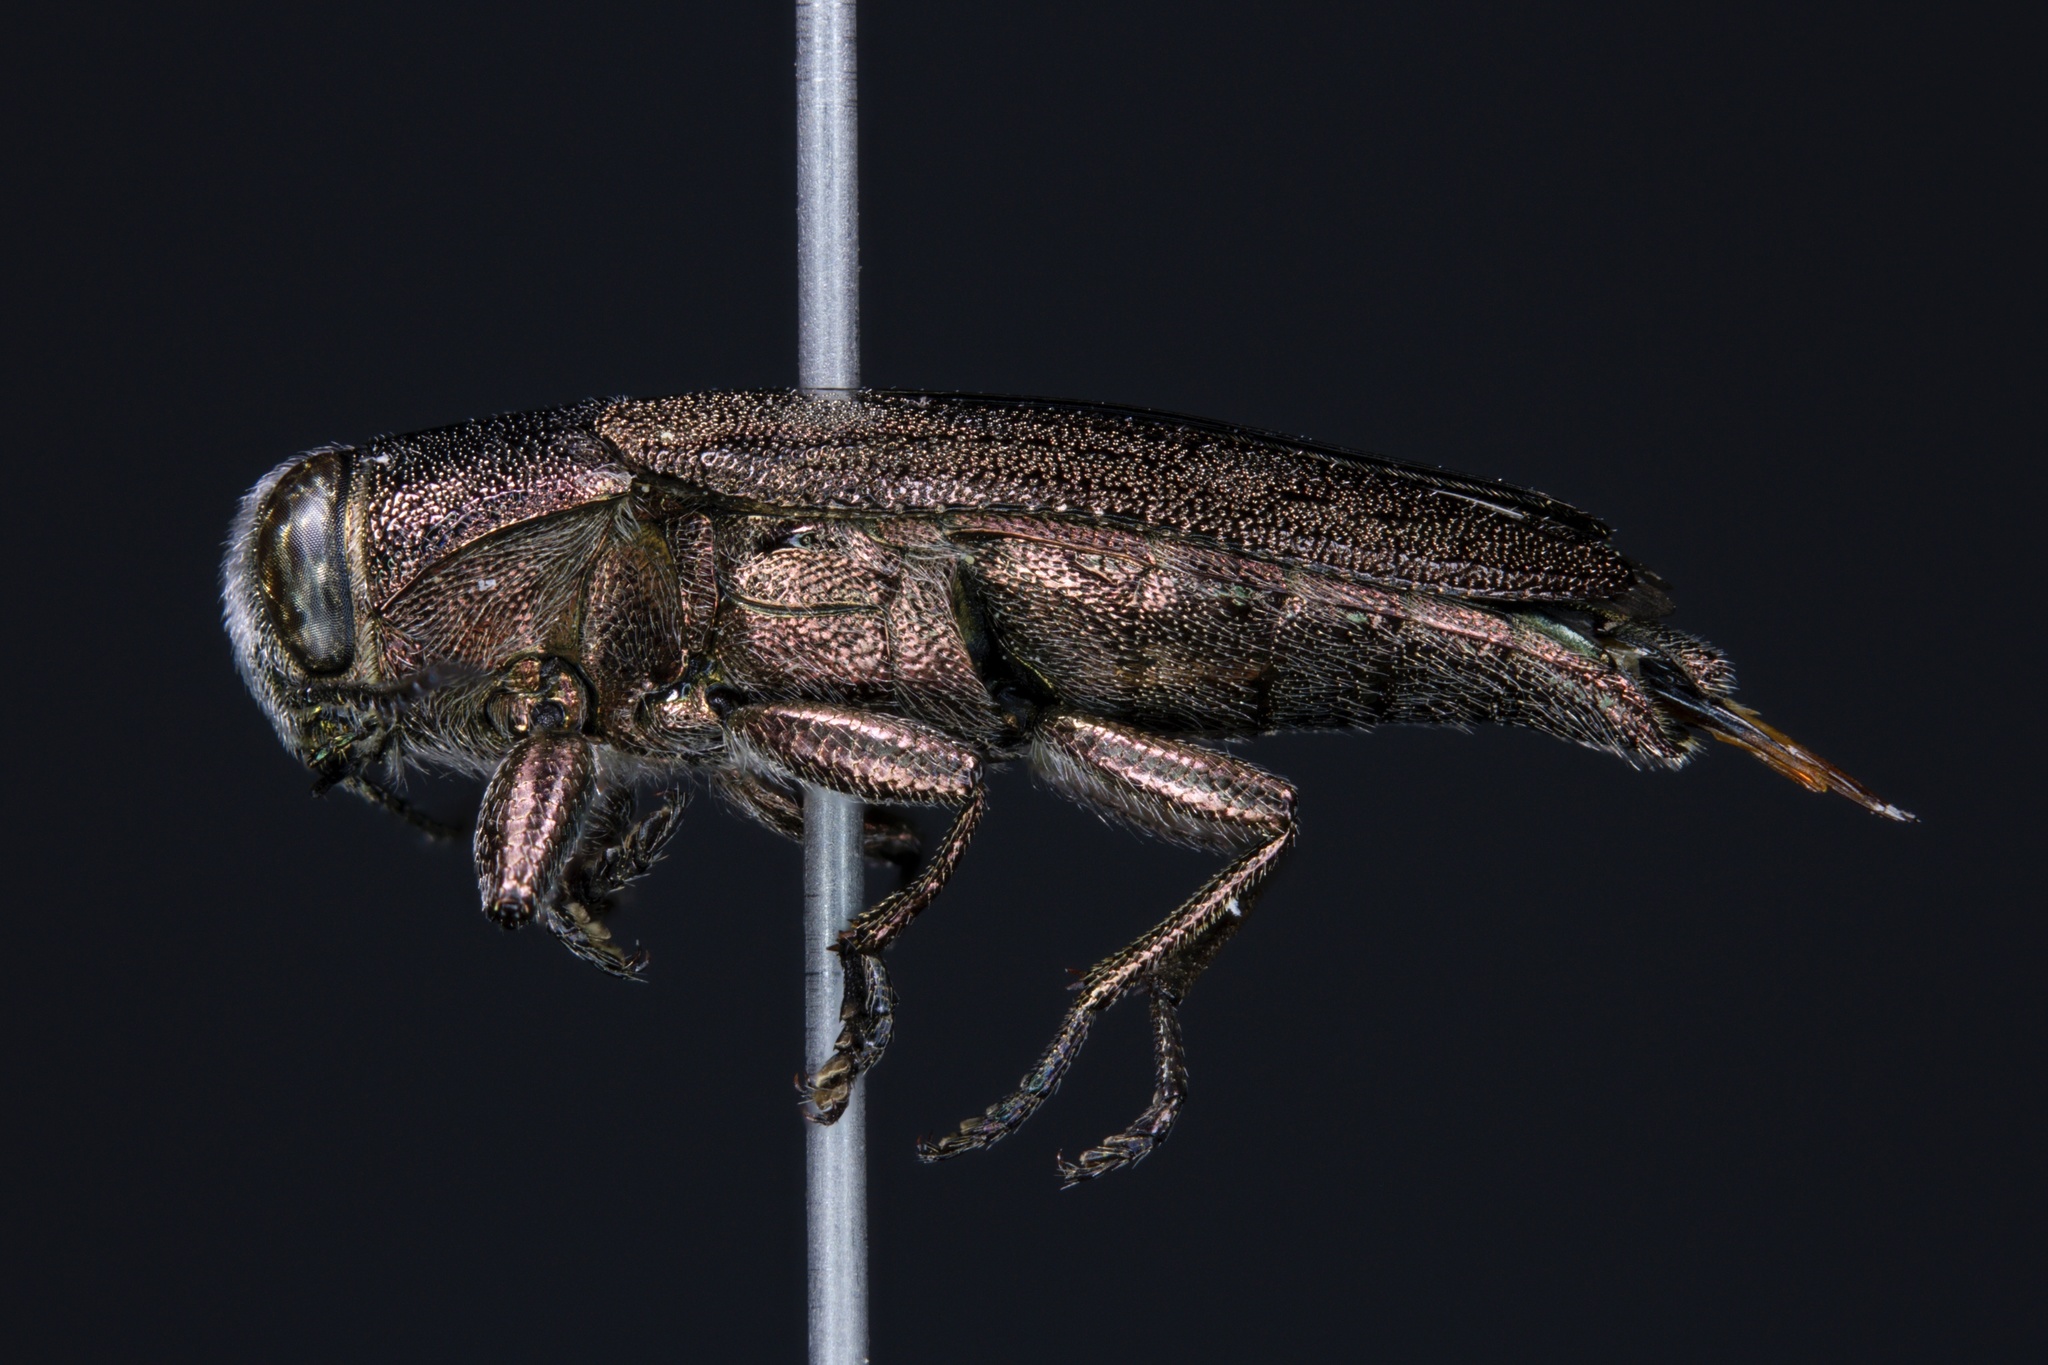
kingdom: Animalia
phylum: Arthropoda
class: Insecta
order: Coleoptera
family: Buprestidae
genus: Chrysobothris
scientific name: Chrysobothris cribraria
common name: Sifting metallic wood-borer
